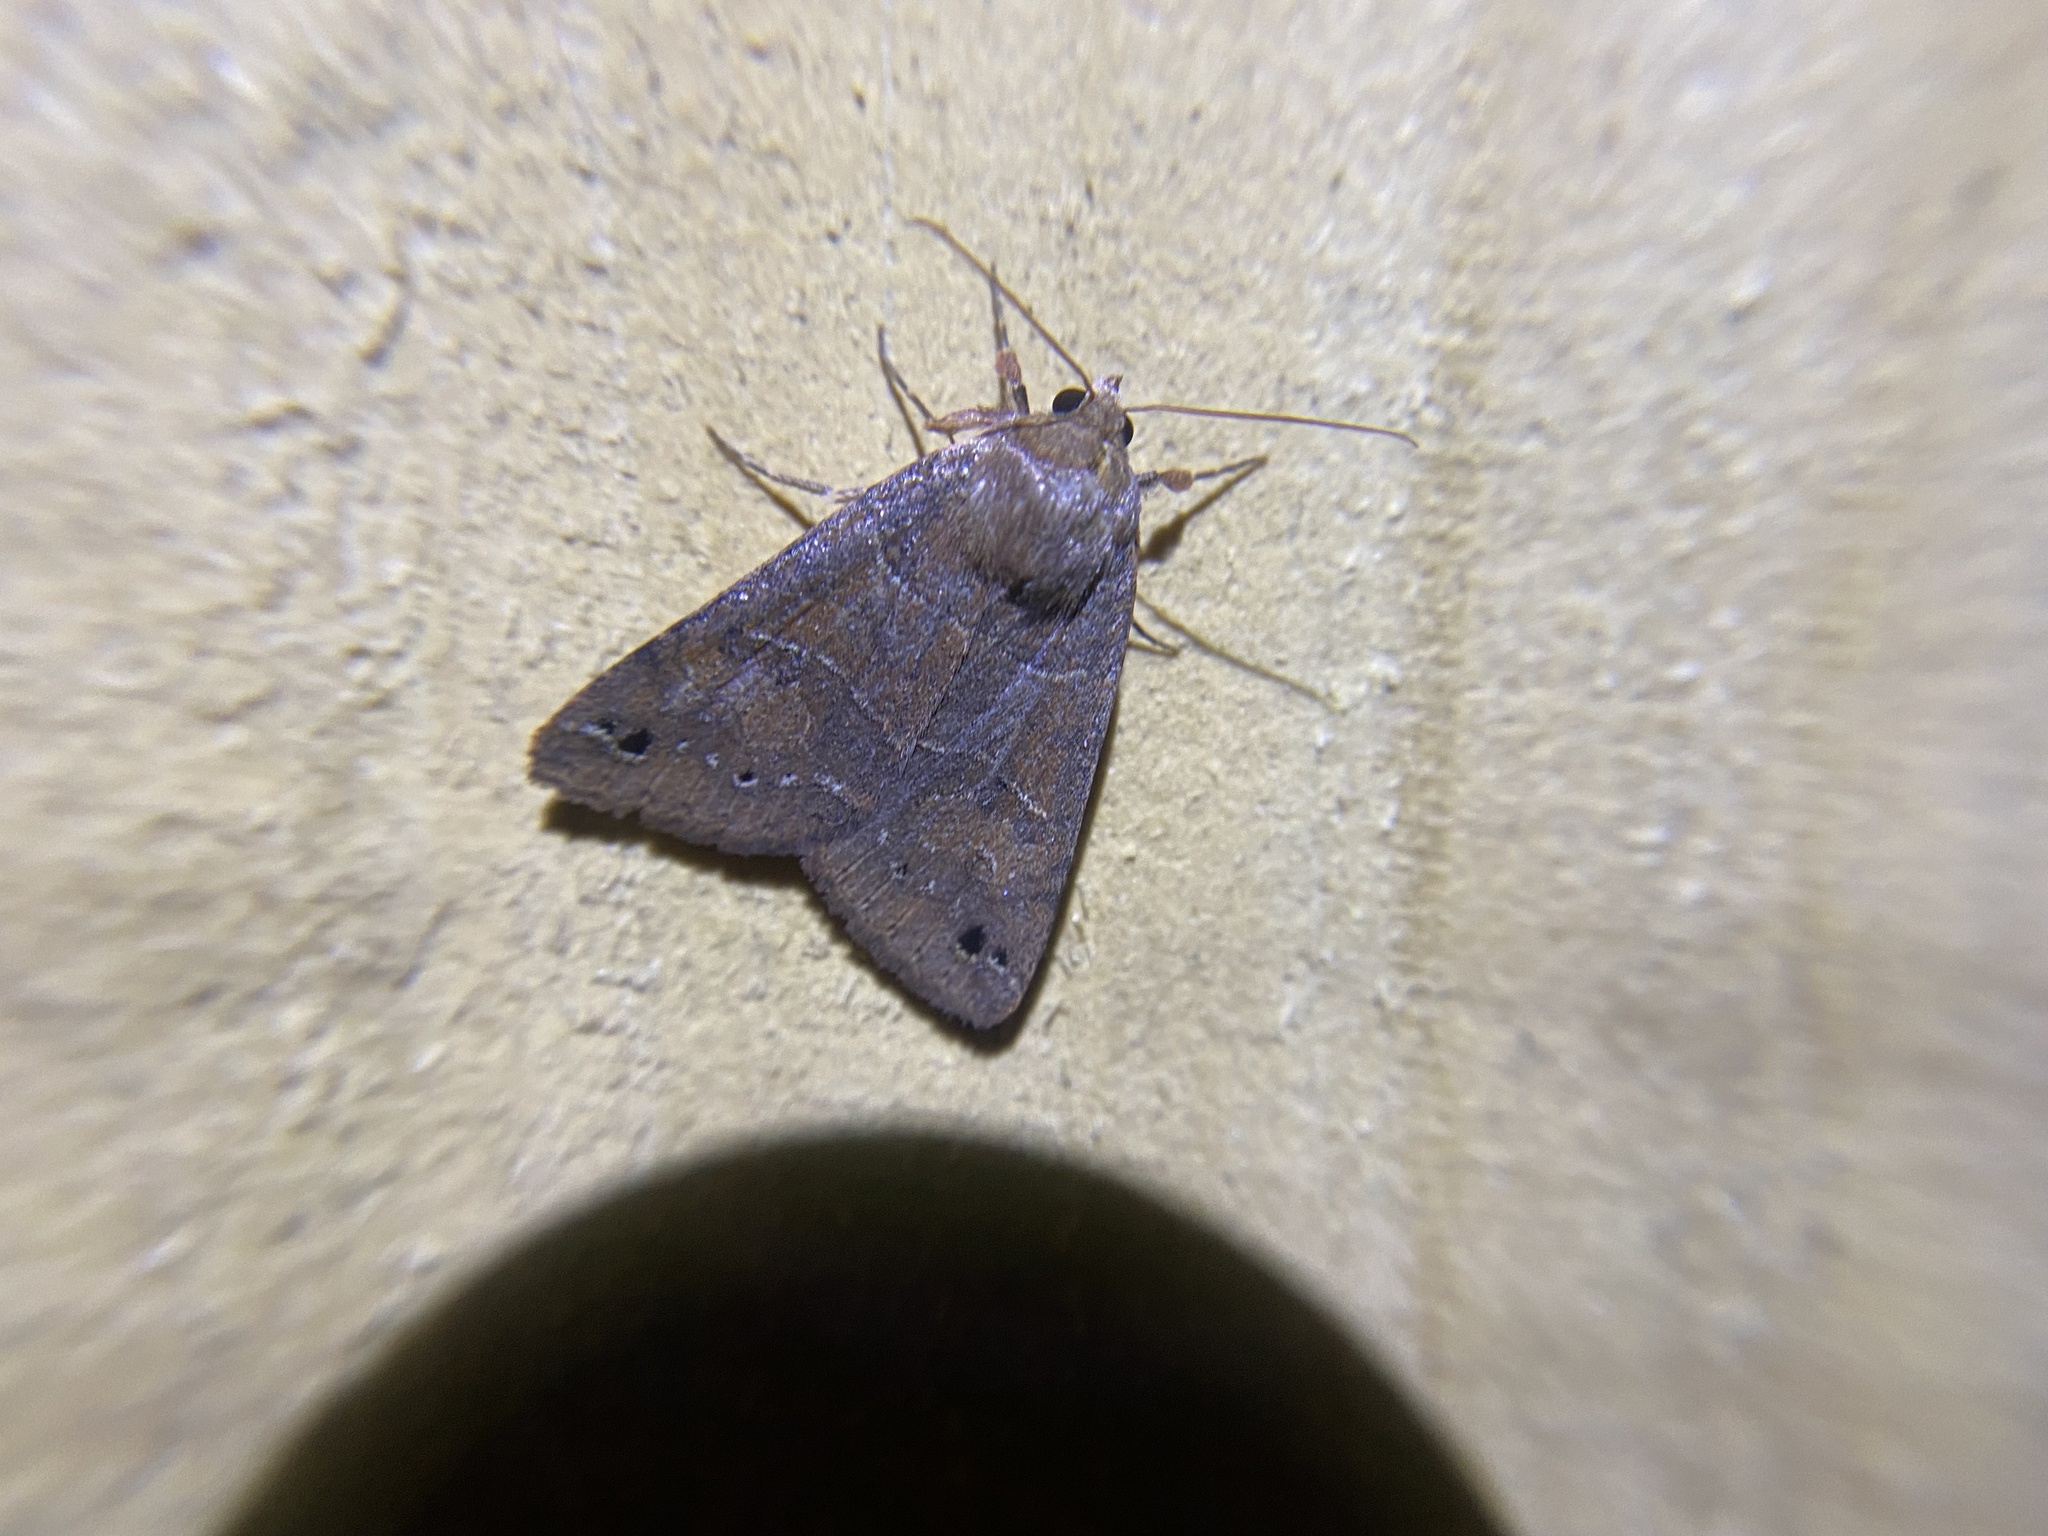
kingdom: Animalia
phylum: Arthropoda
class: Insecta
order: Lepidoptera
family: Erebidae
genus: Cissusa
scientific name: Cissusa spadix
